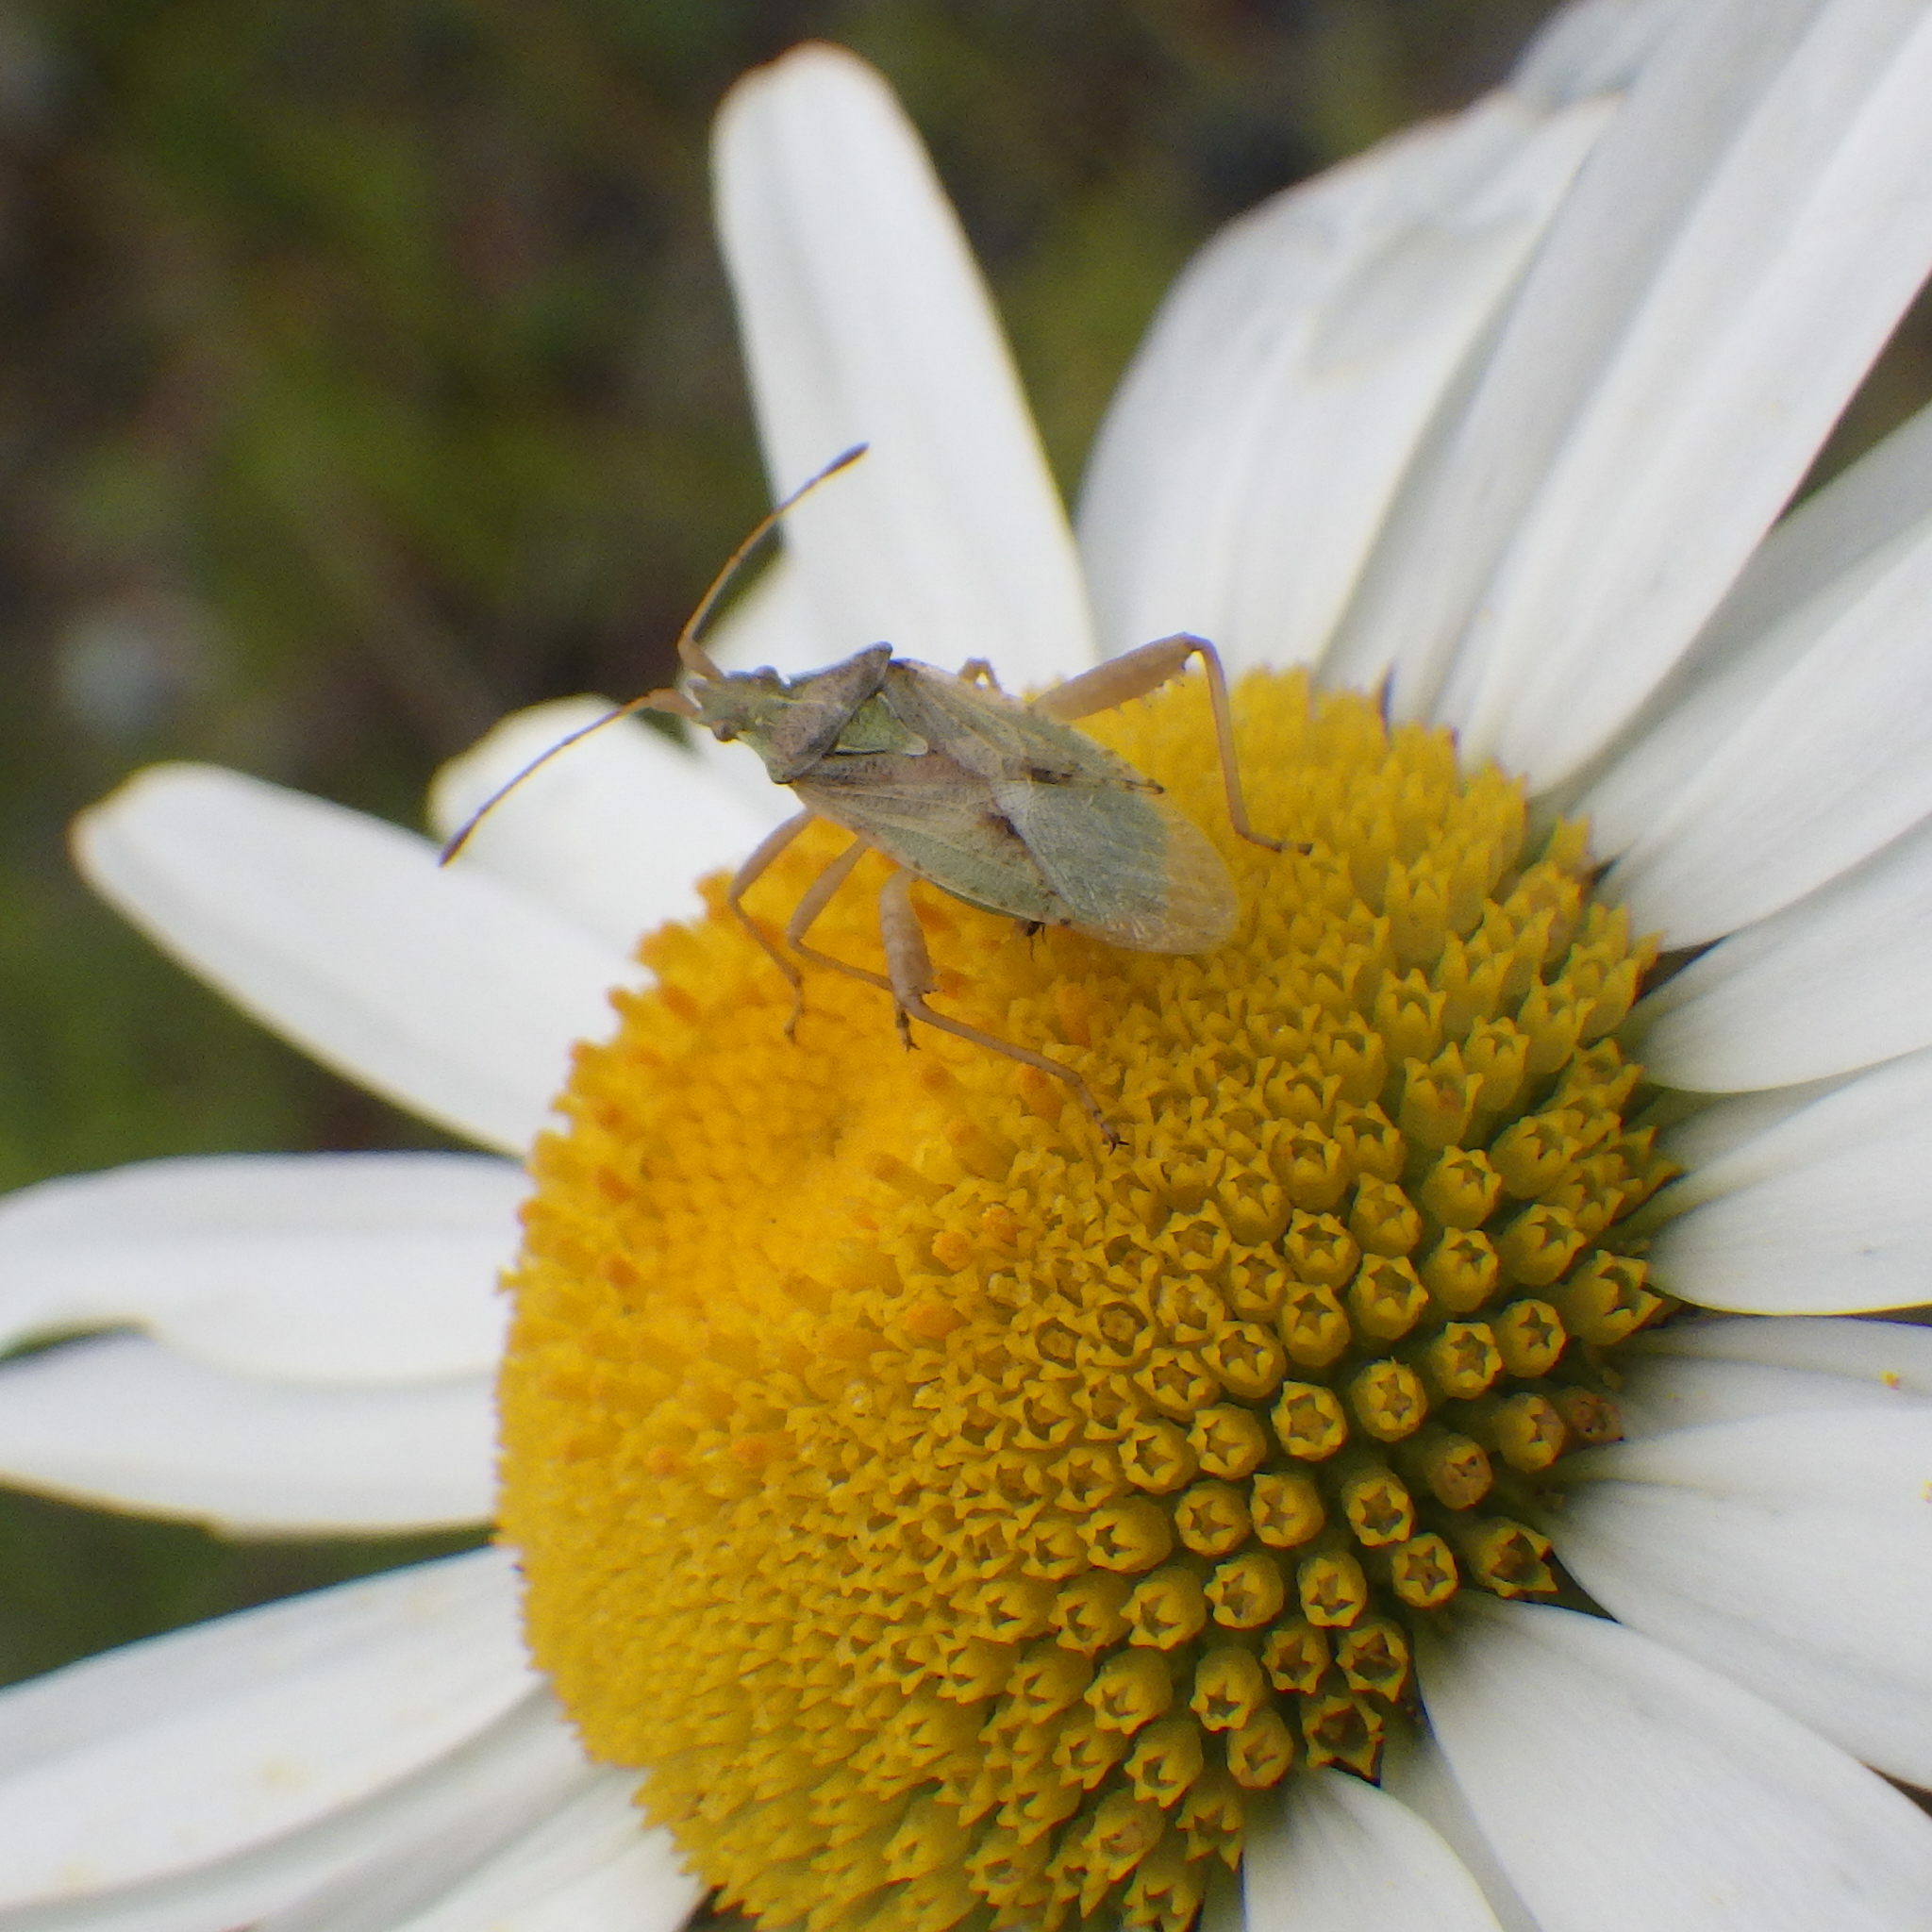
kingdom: Animalia
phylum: Arthropoda
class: Insecta
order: Hemiptera
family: Rhopalidae
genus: Harmostes
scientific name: Harmostes reflexulus
